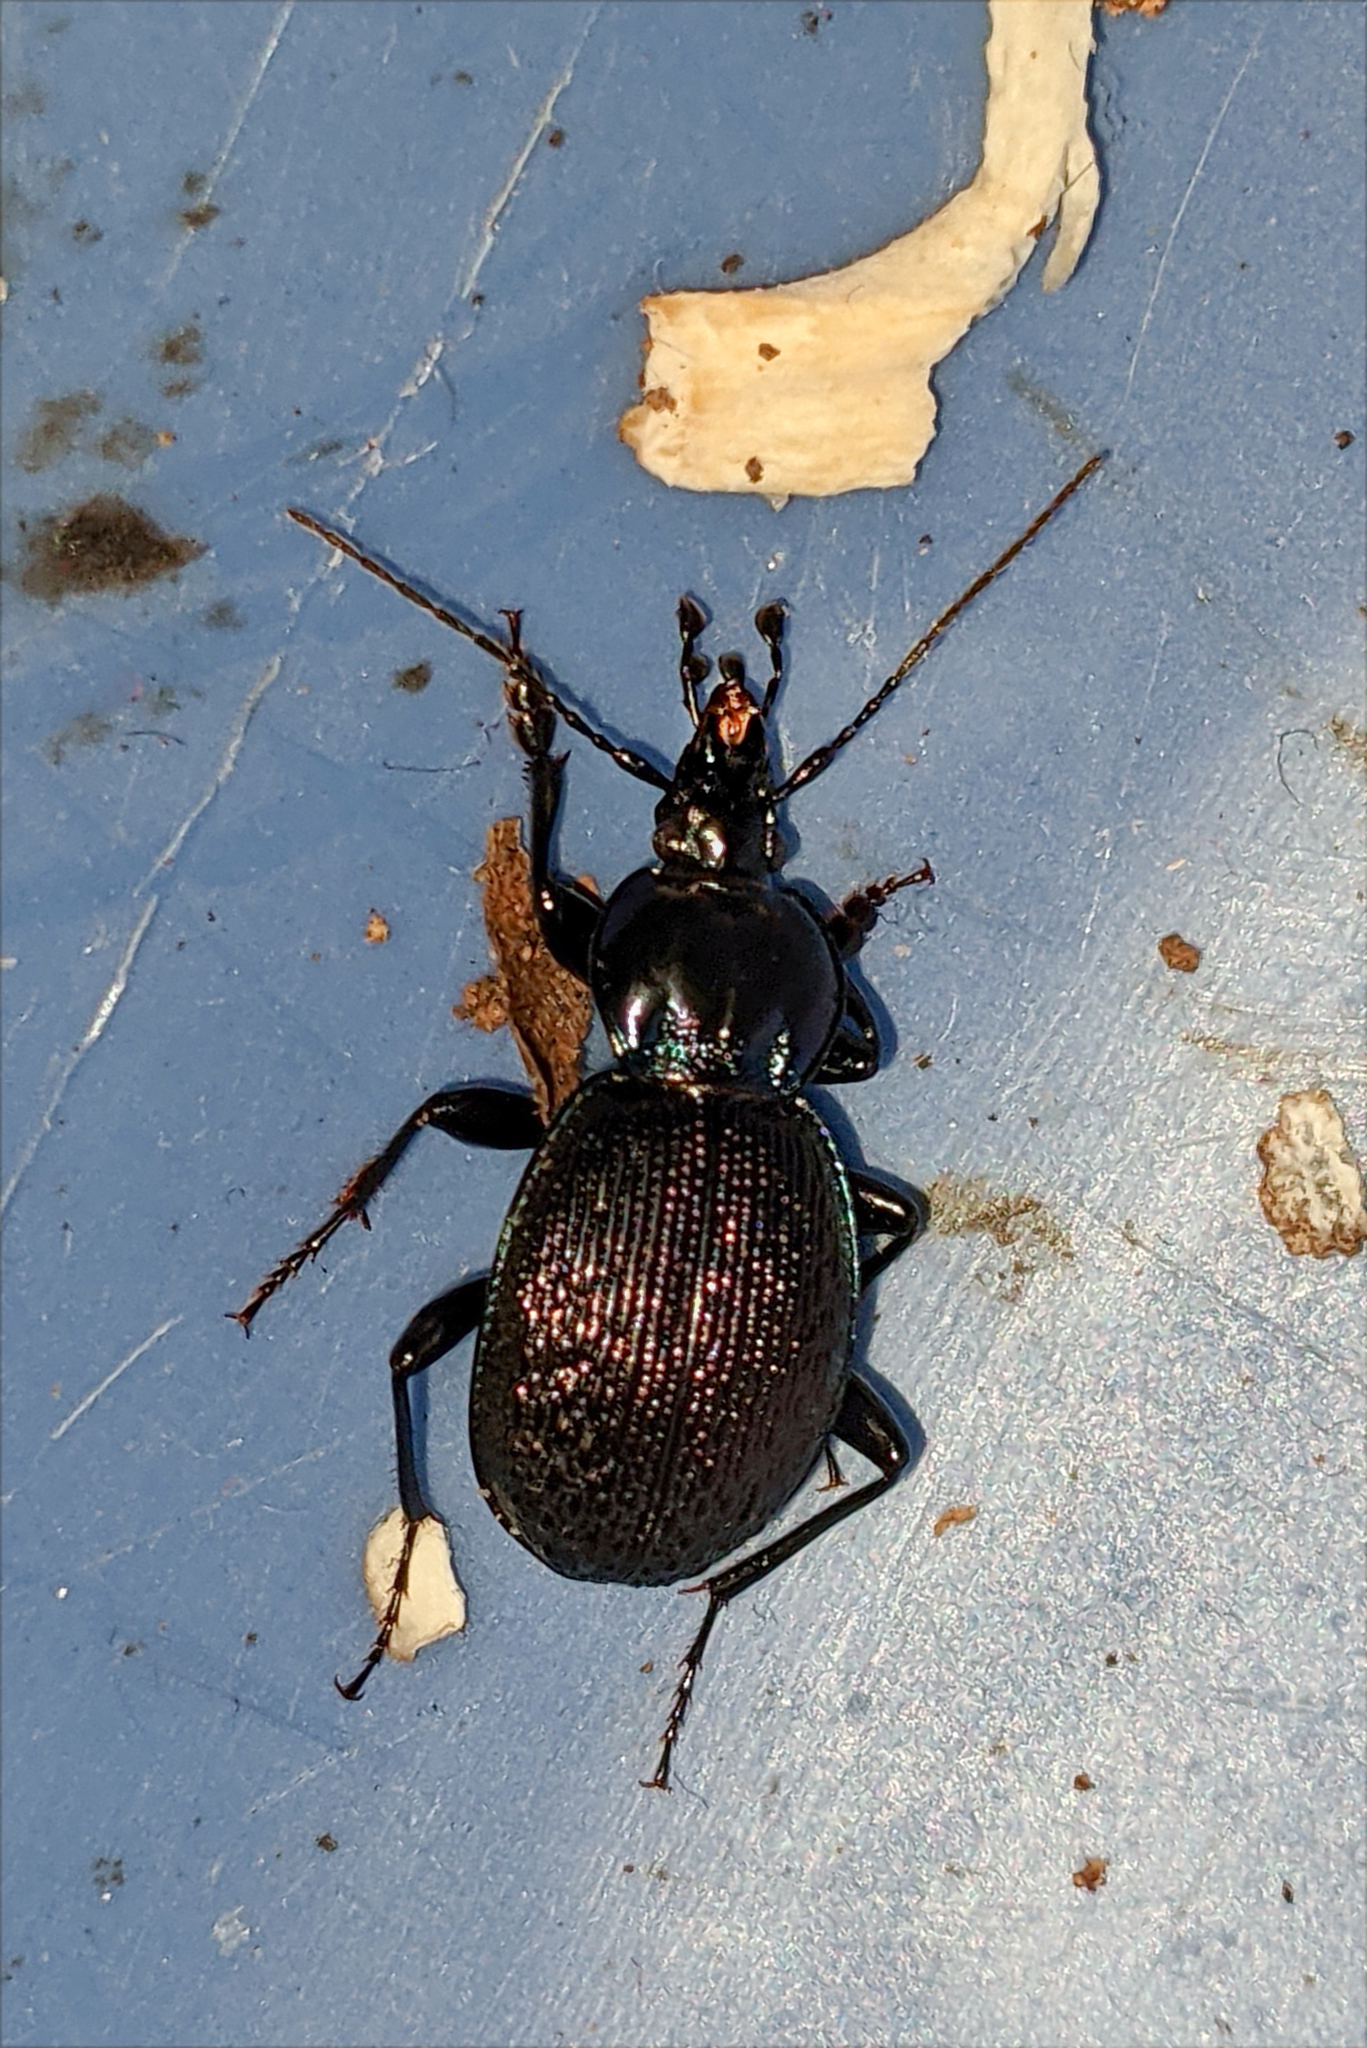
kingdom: Animalia
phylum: Arthropoda
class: Insecta
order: Coleoptera
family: Carabidae
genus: Sphaeroderus
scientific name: Sphaeroderus stenostomus
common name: Small snail-eating ground beetle
